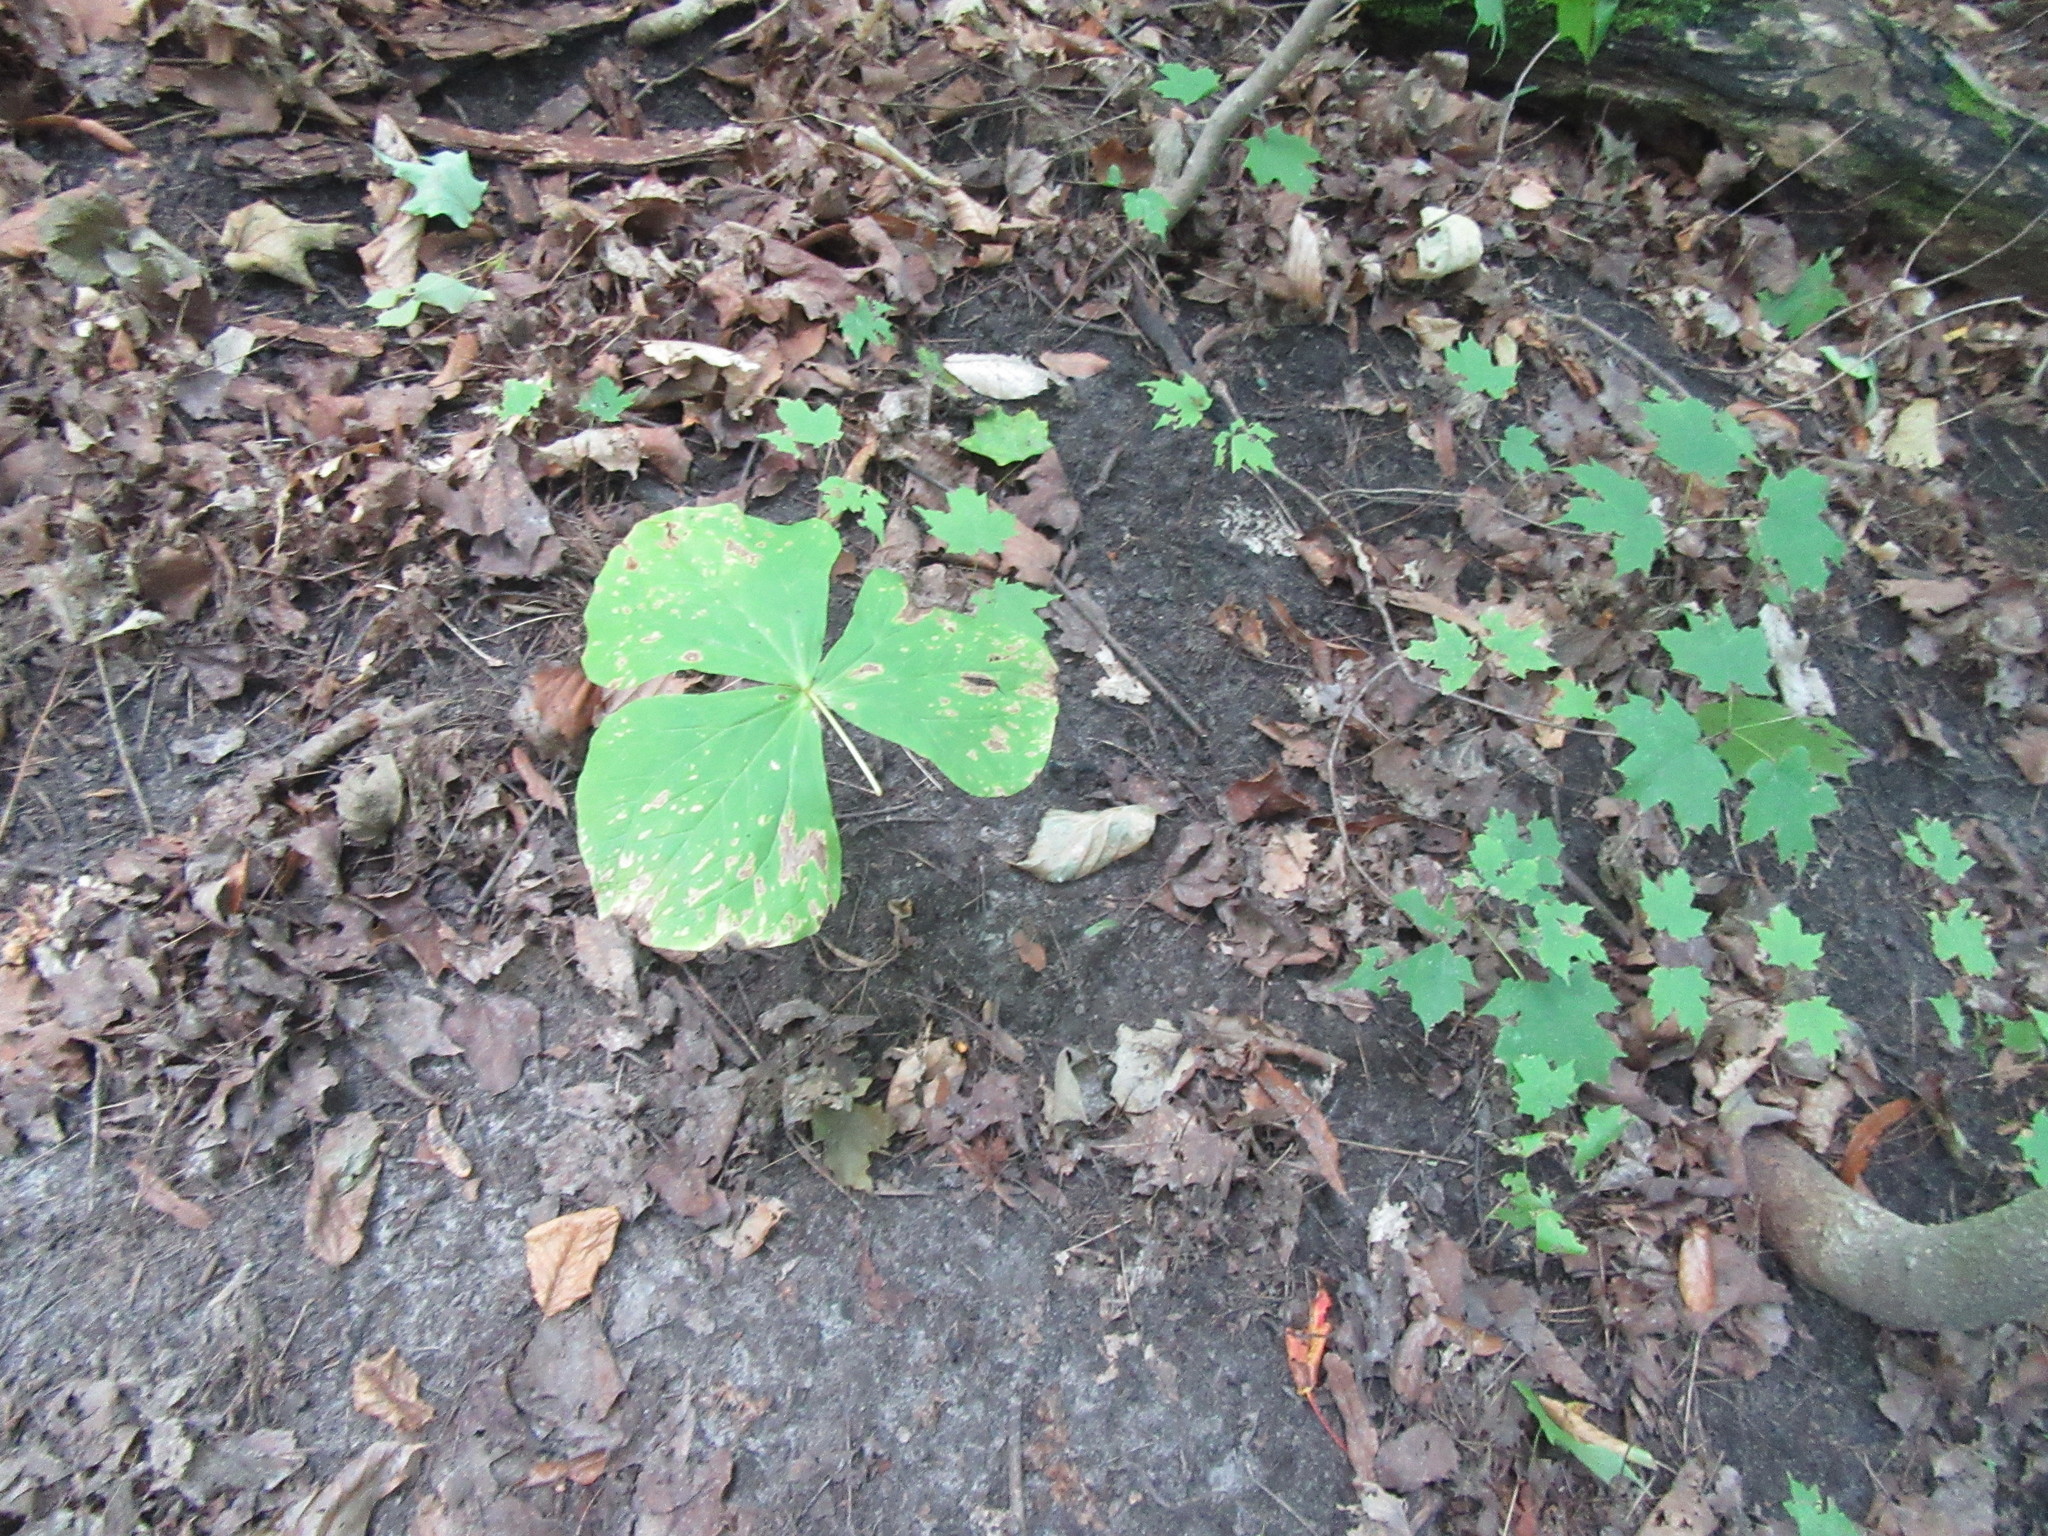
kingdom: Plantae
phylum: Tracheophyta
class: Liliopsida
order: Liliales
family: Melanthiaceae
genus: Trillium
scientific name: Trillium erectum
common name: Purple trillium
